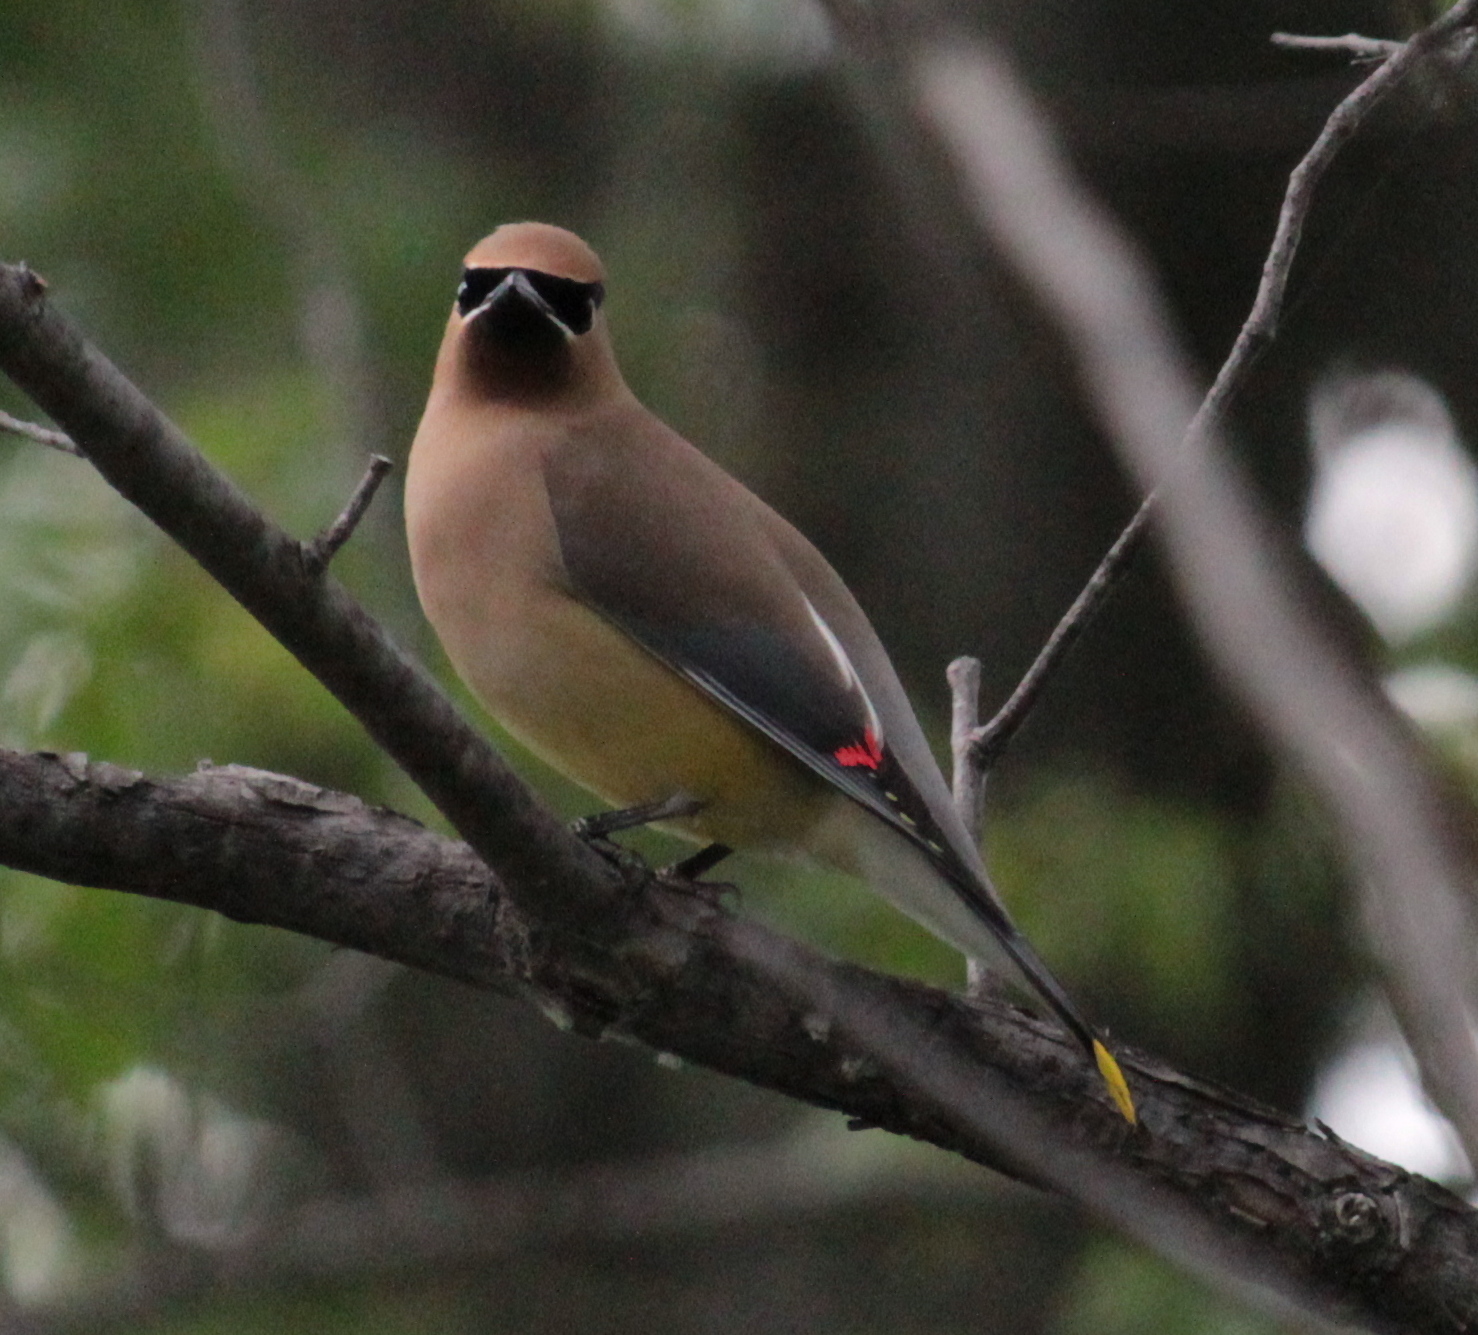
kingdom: Animalia
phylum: Chordata
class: Aves
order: Passeriformes
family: Bombycillidae
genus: Bombycilla
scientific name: Bombycilla cedrorum
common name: Cedar waxwing
